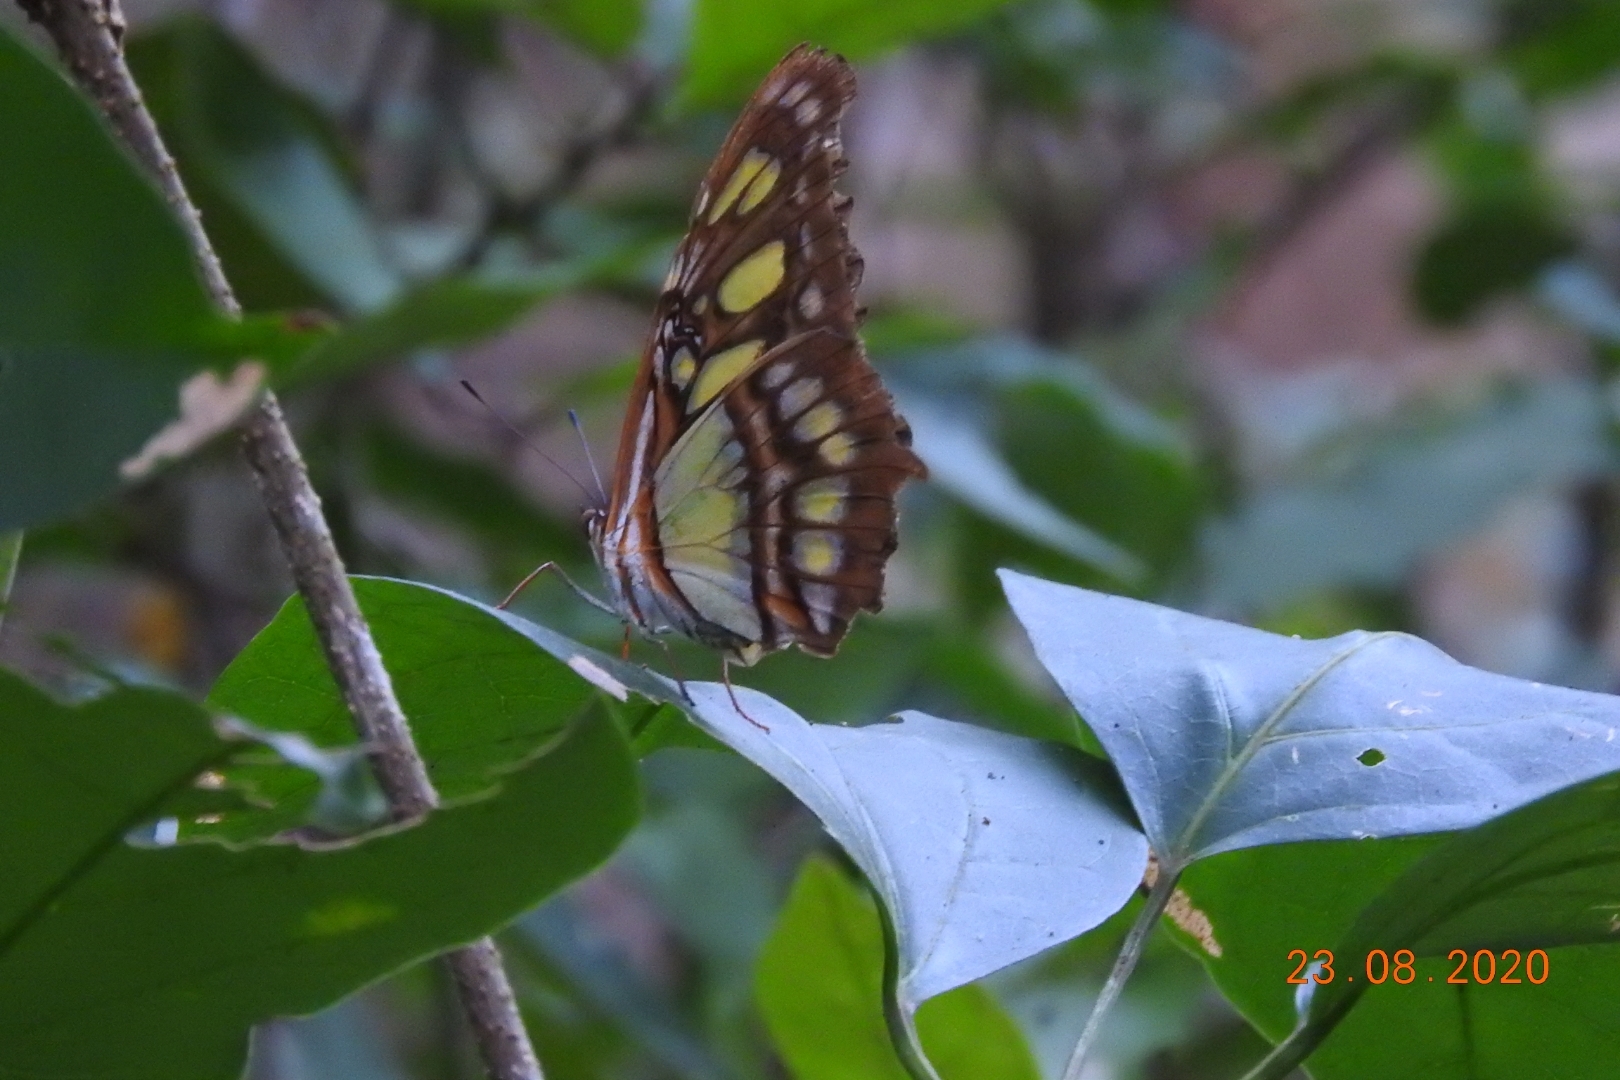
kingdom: Animalia
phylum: Arthropoda
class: Insecta
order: Lepidoptera
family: Nymphalidae
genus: Siproeta
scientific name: Siproeta stelenes
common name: Malachite
